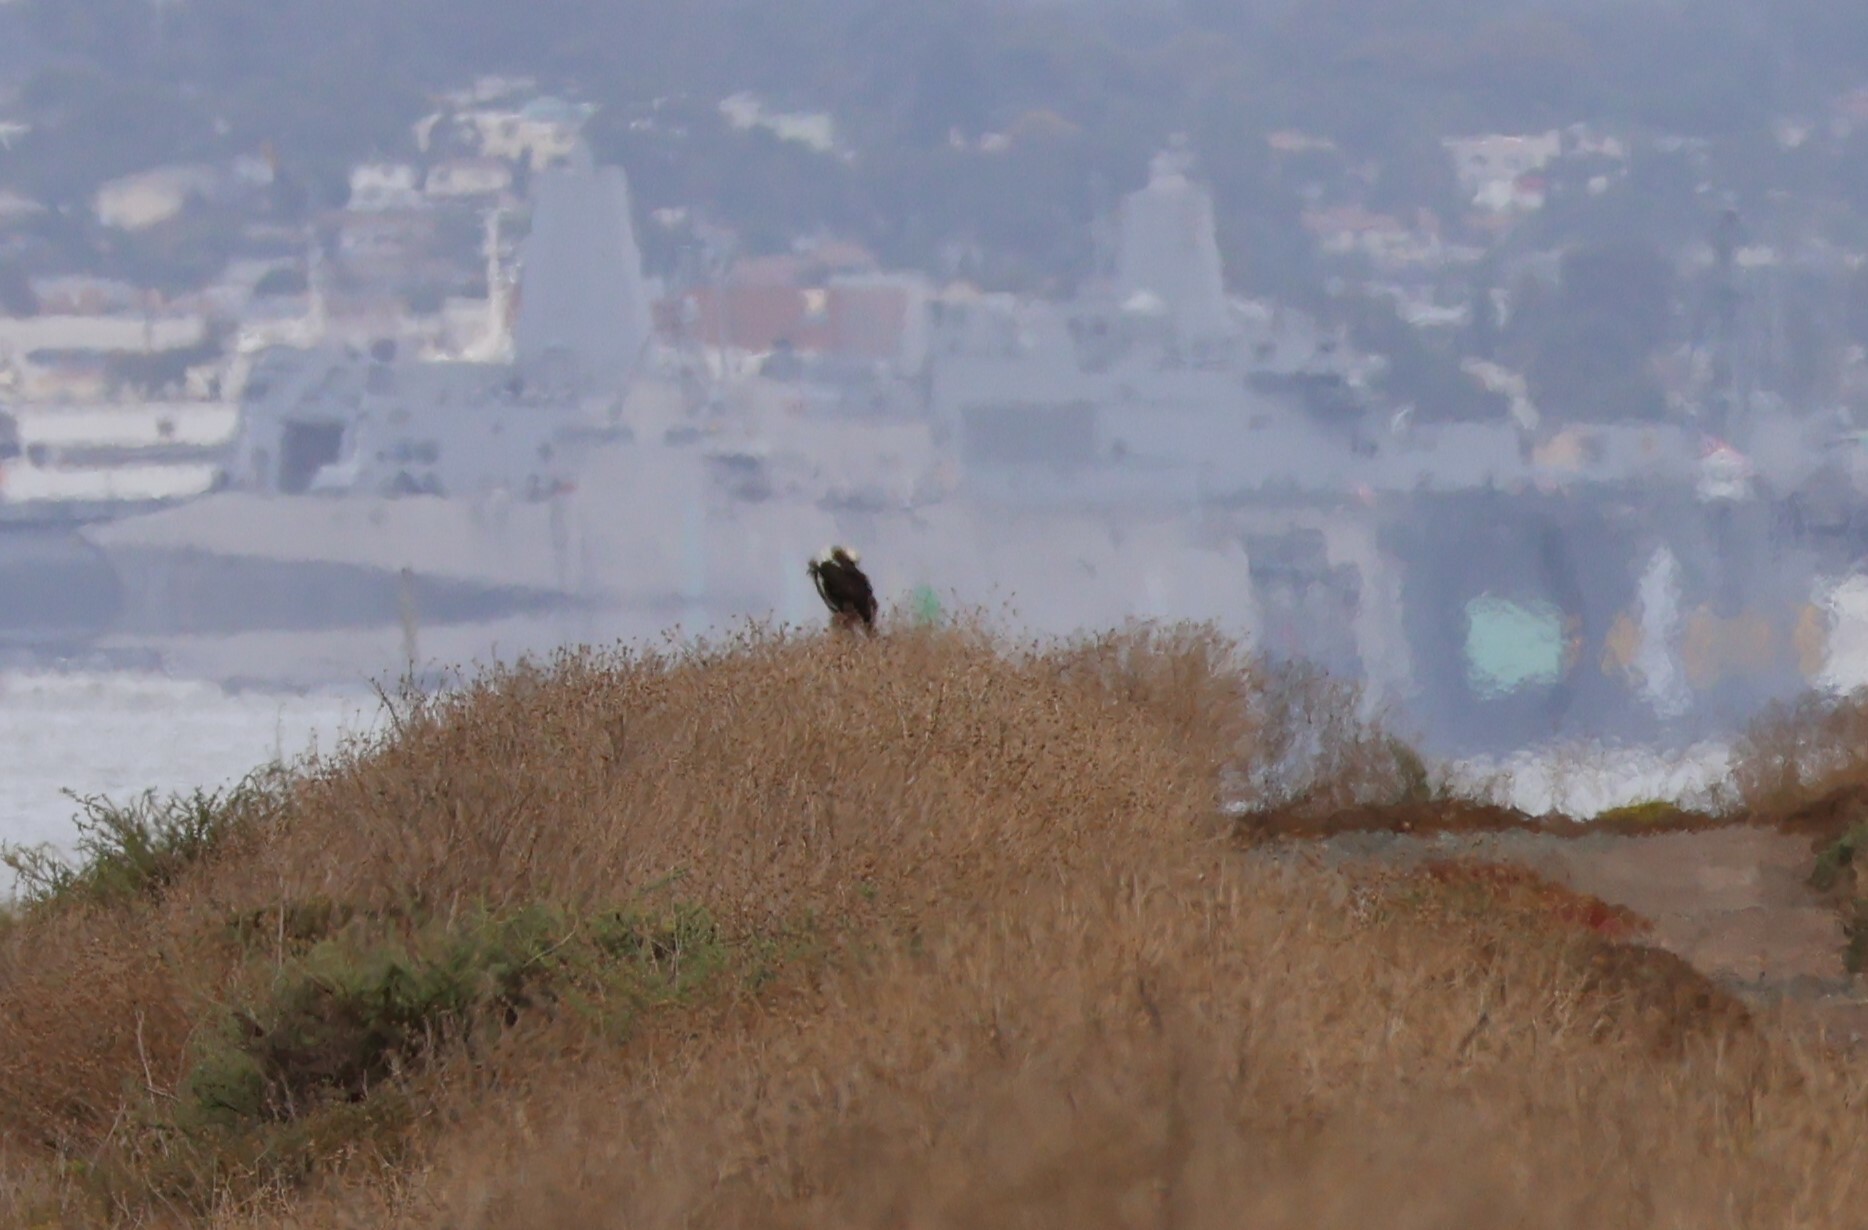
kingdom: Animalia
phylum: Chordata
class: Aves
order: Accipitriformes
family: Pandionidae
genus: Pandion
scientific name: Pandion haliaetus
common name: Osprey
